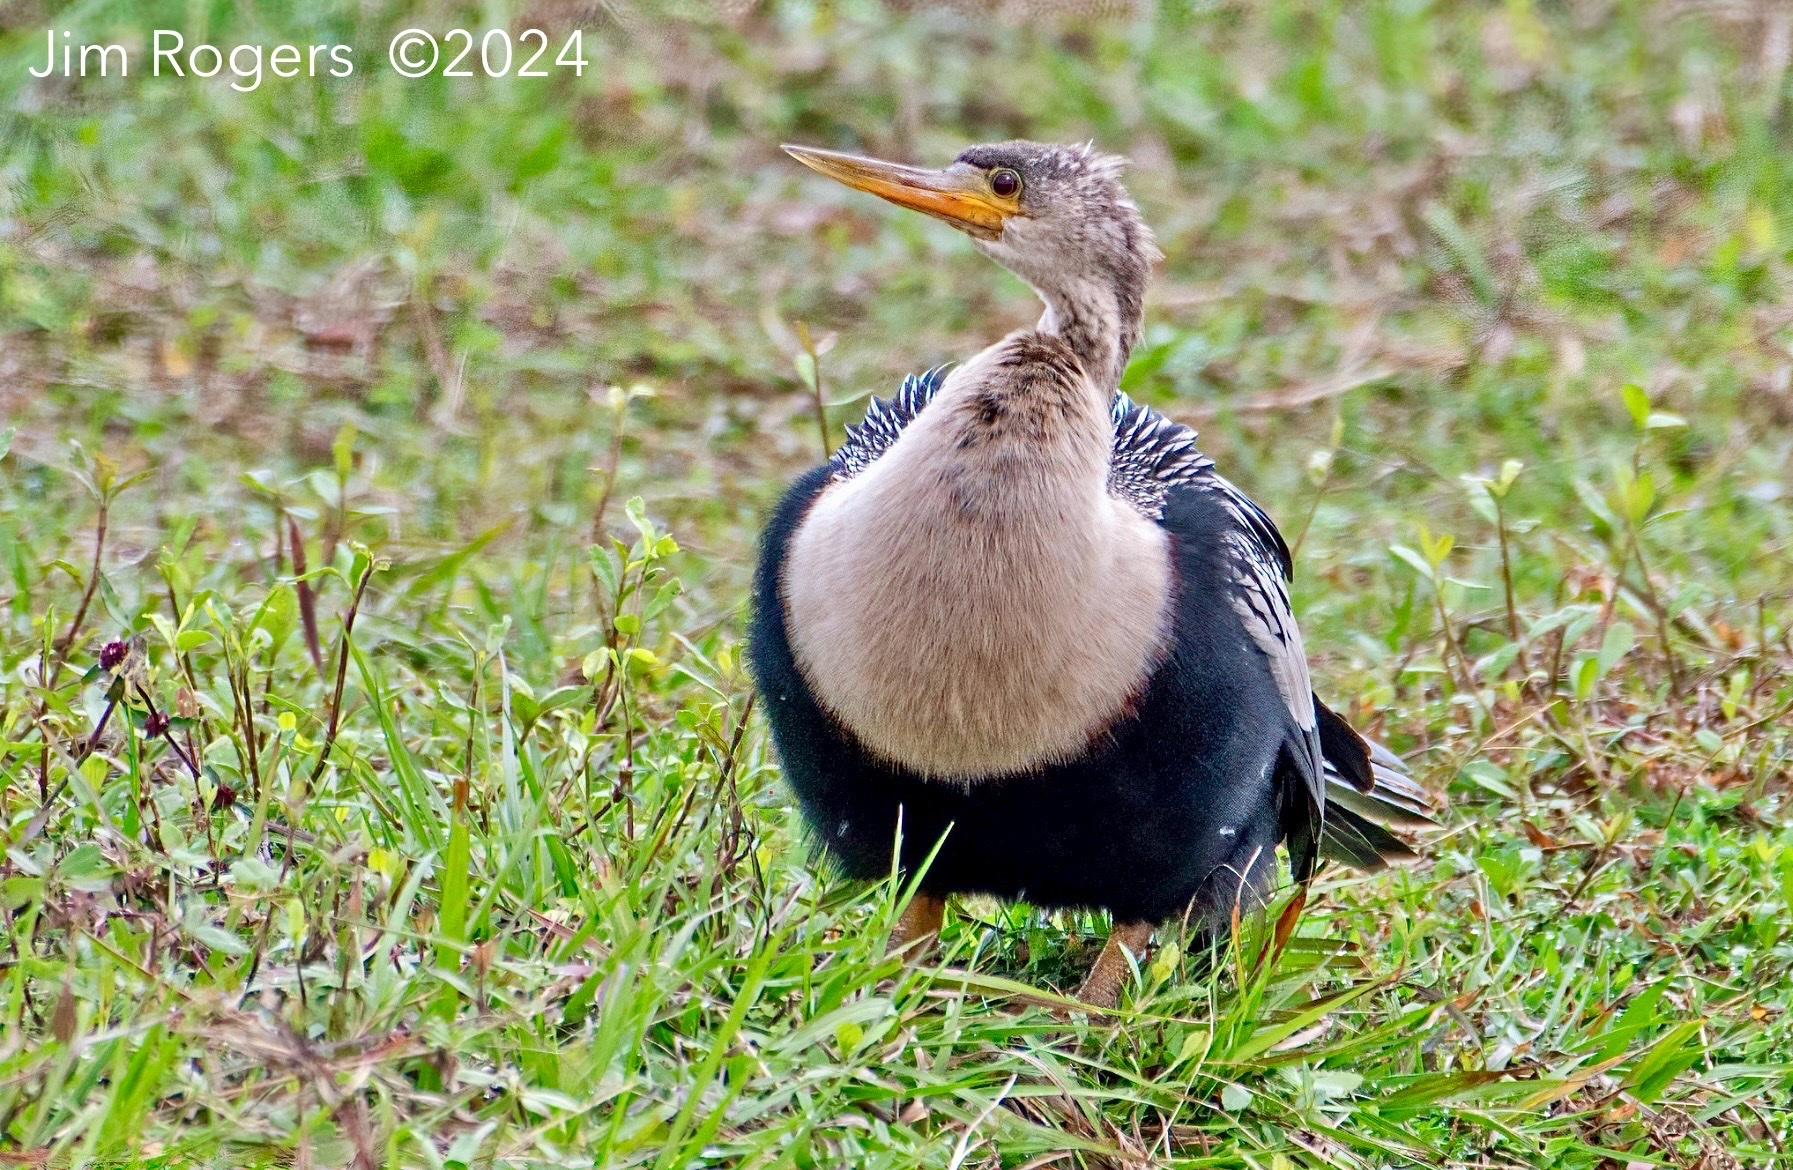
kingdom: Animalia
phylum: Chordata
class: Aves
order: Suliformes
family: Anhingidae
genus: Anhinga
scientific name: Anhinga anhinga
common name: Anhinga
